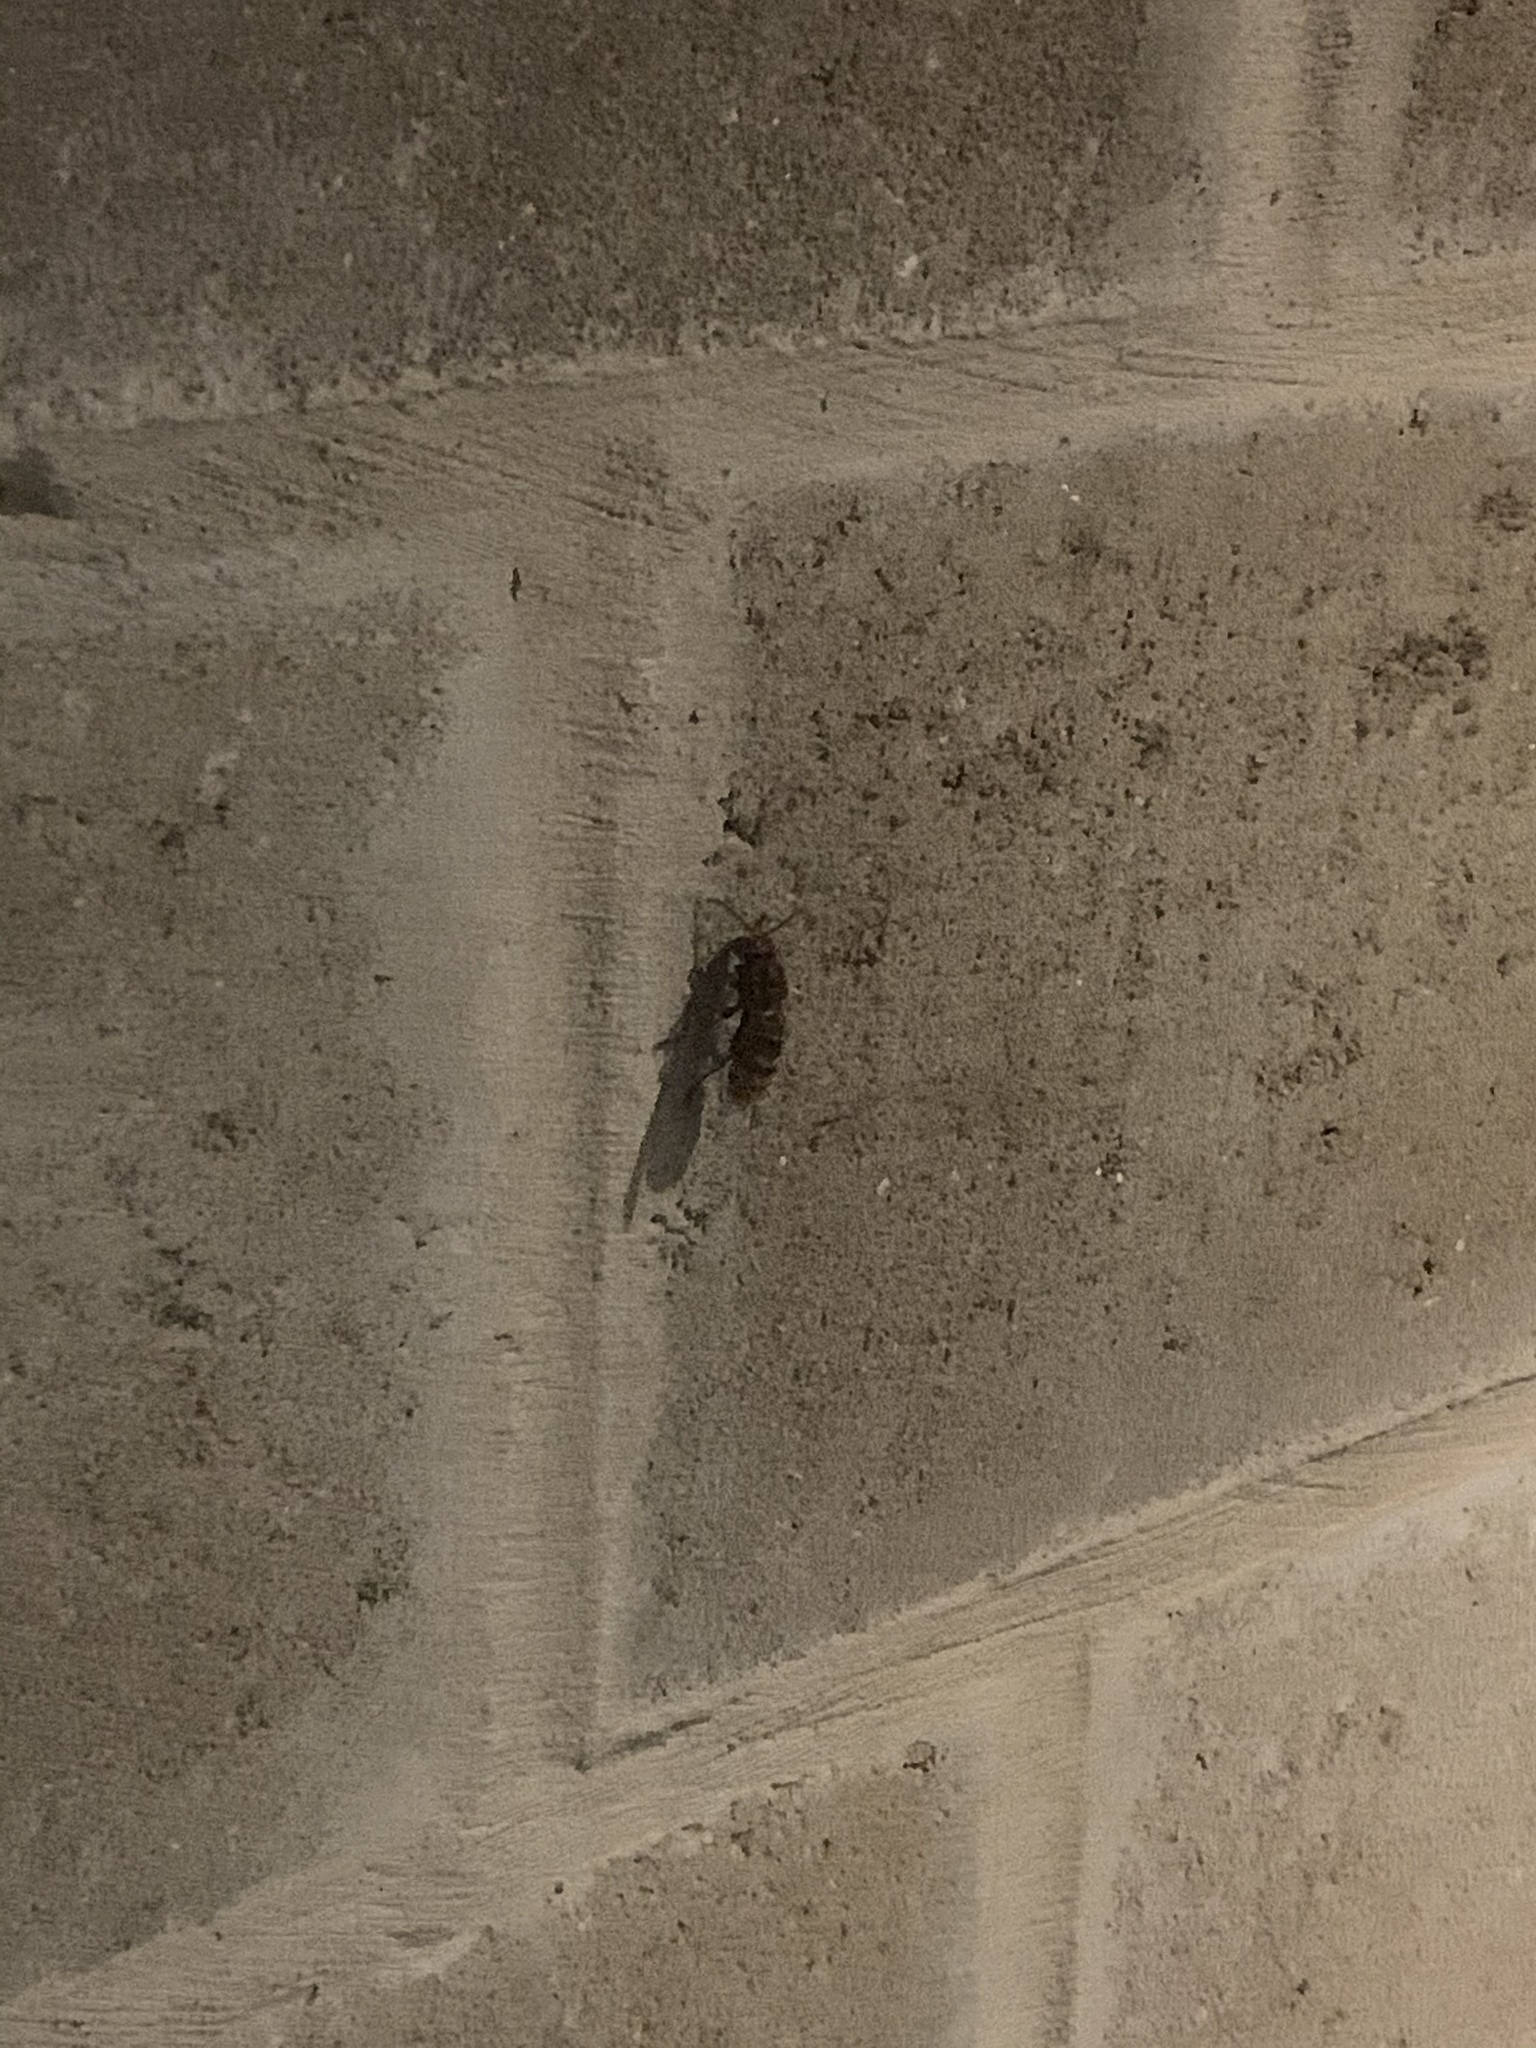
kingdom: Animalia
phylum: Arthropoda
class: Insecta
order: Hymenoptera
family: Vespidae
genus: Vespa
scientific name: Vespa crabro
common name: Hornet
